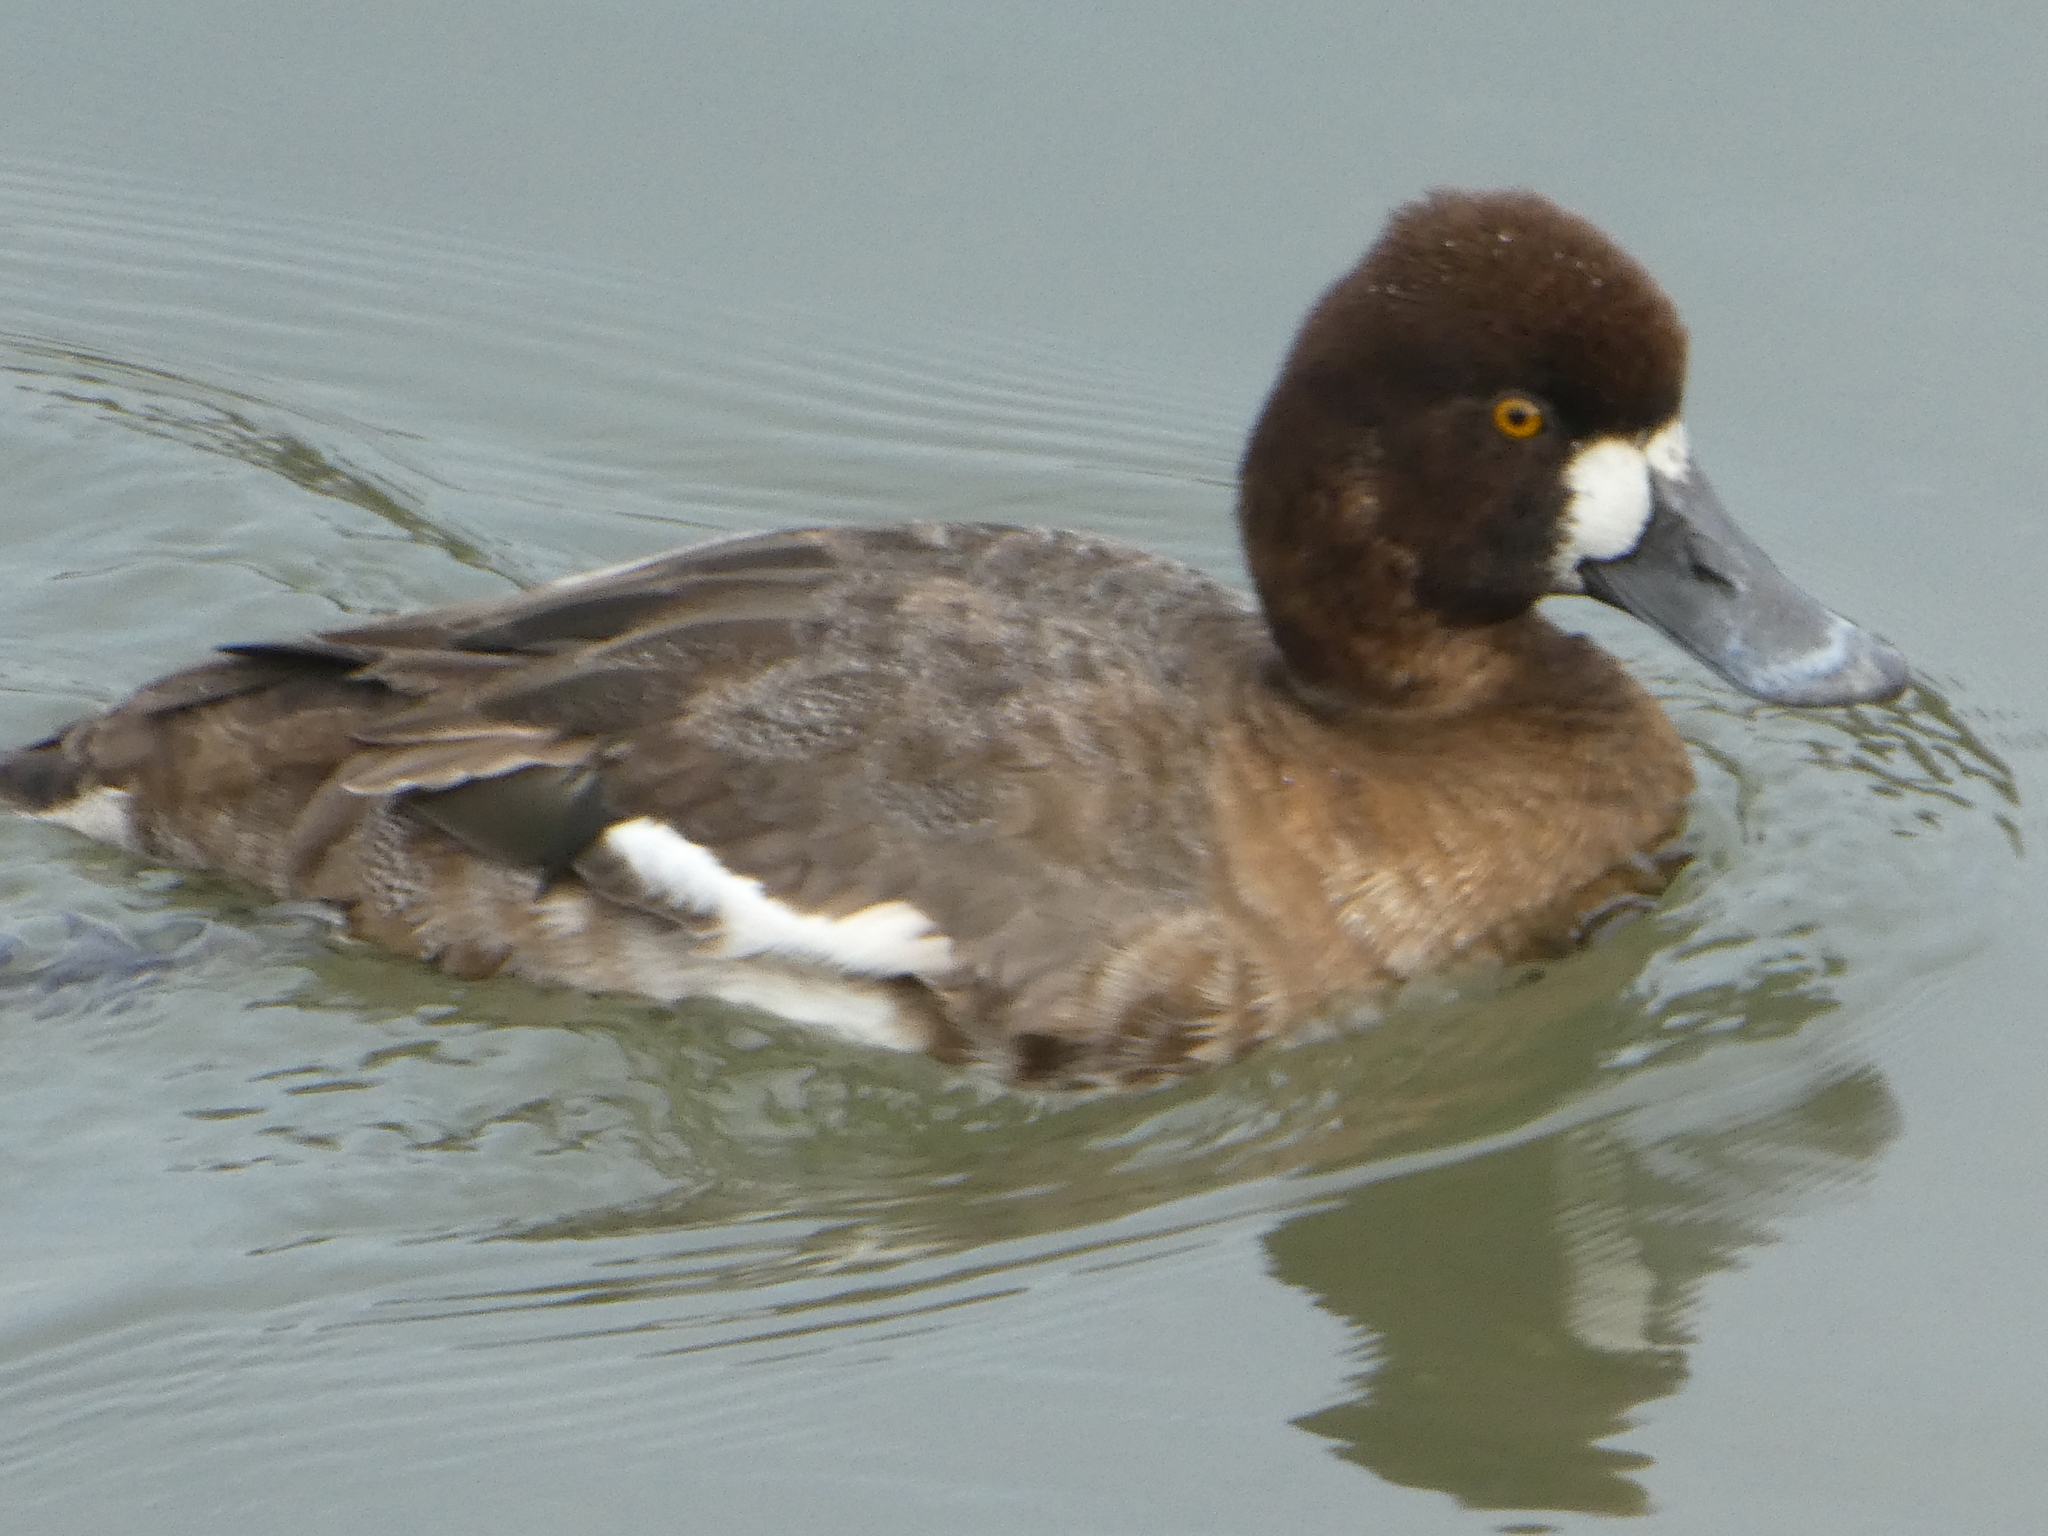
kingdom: Animalia
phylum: Chordata
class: Aves
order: Anseriformes
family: Anatidae
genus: Aythya
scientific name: Aythya affinis
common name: Lesser scaup
